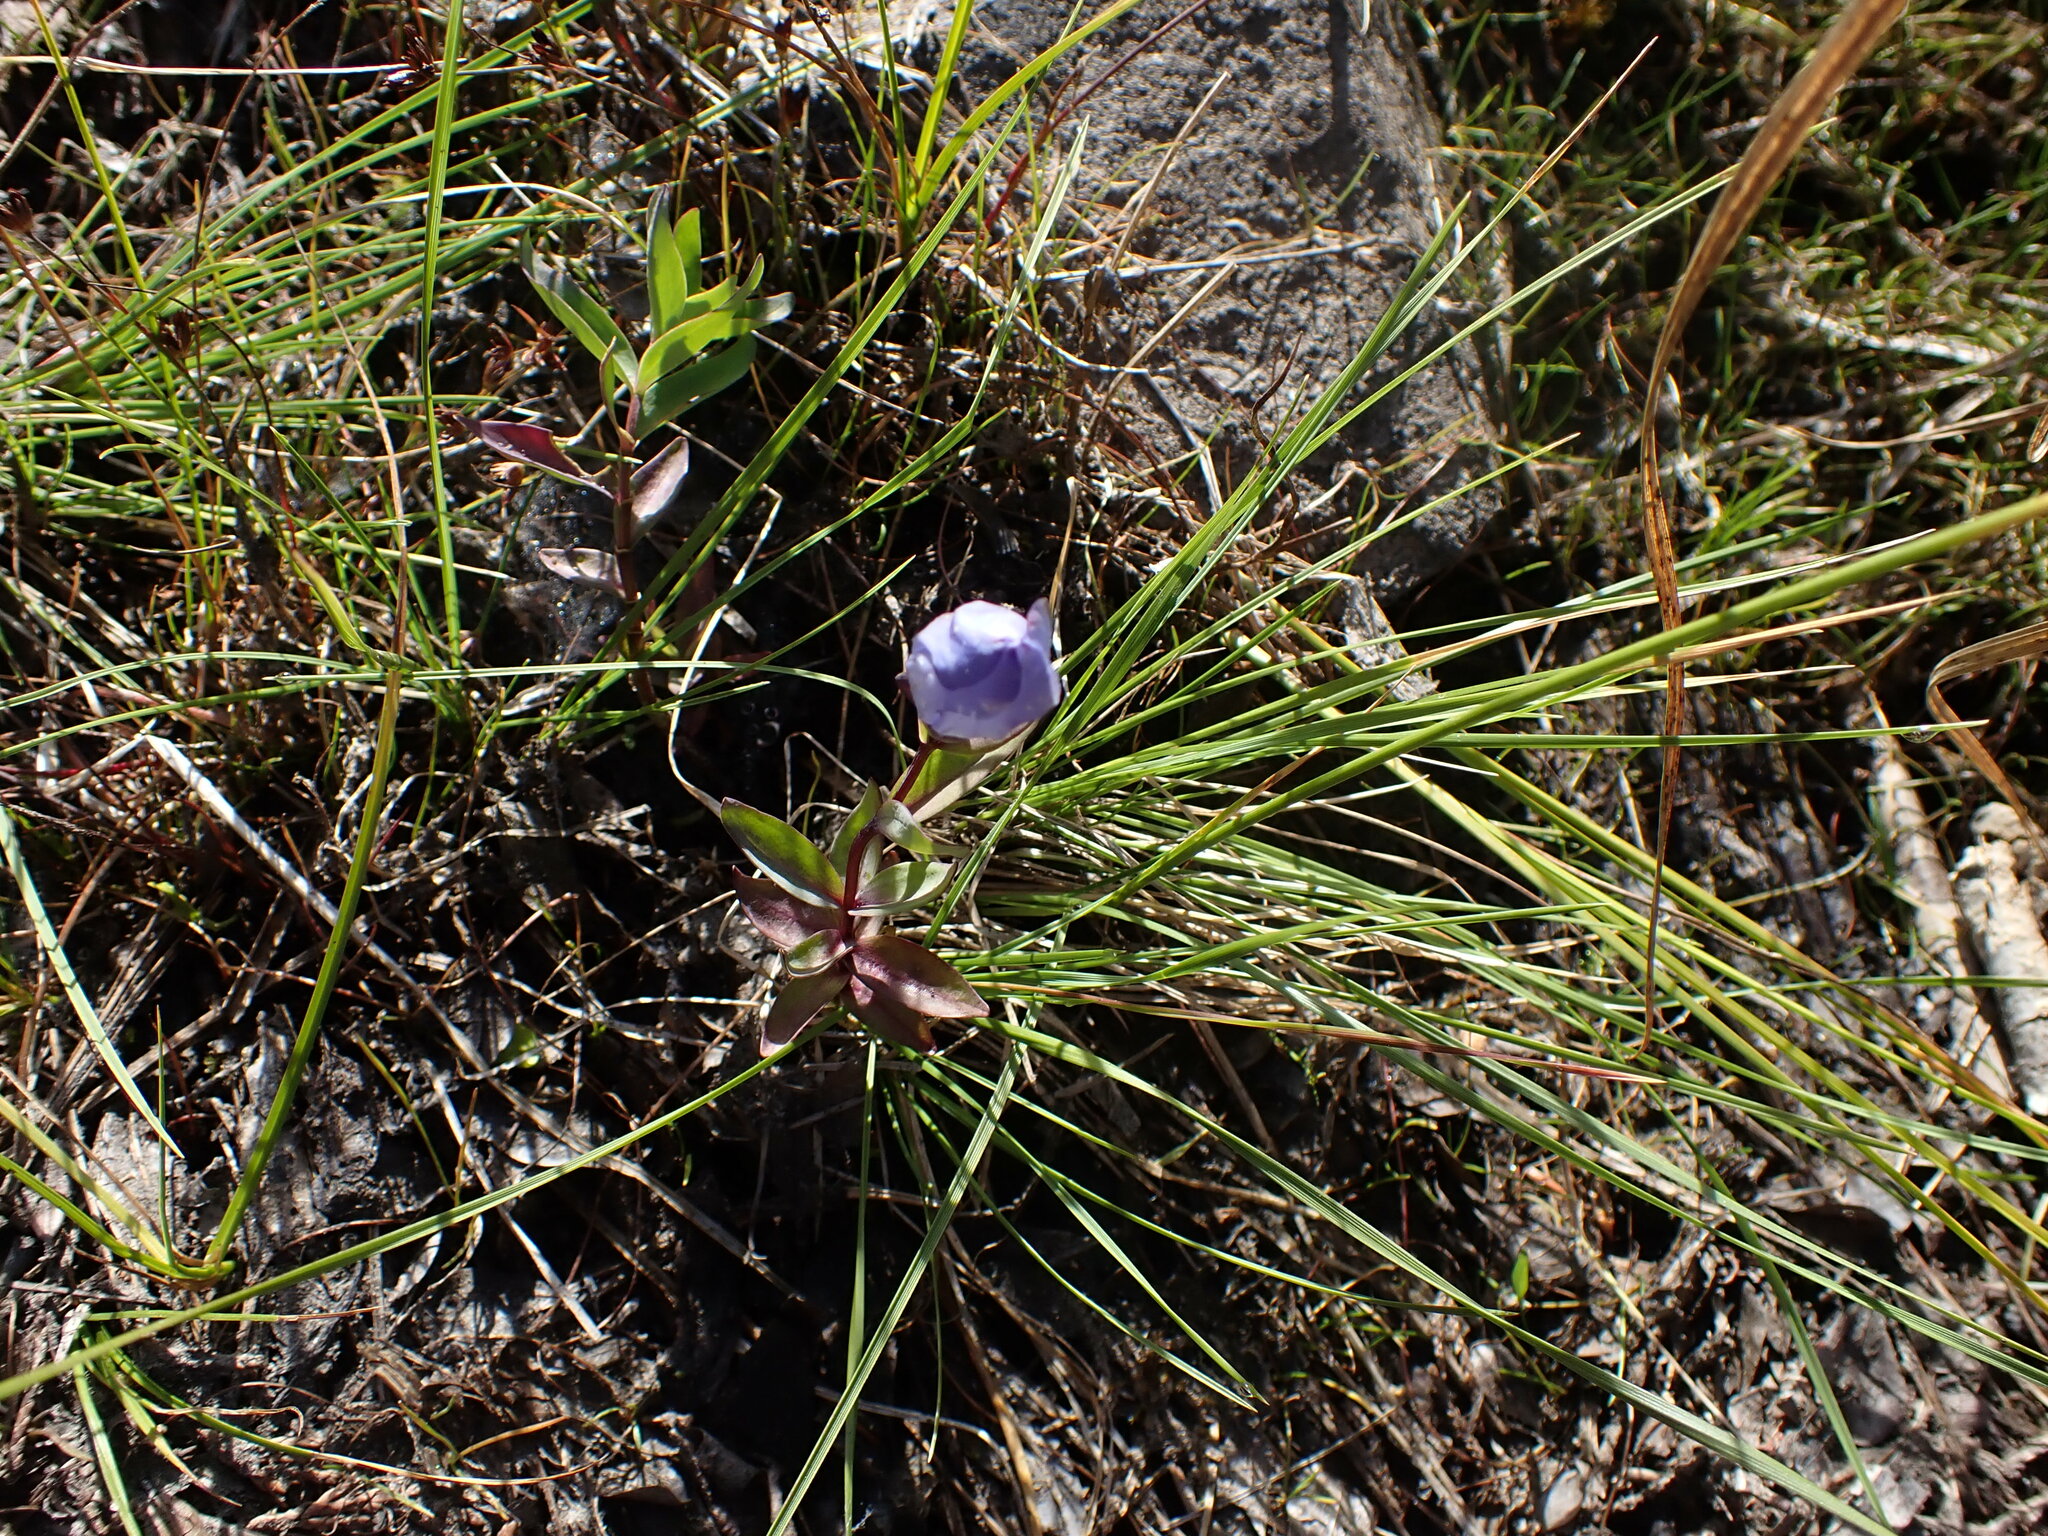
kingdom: Plantae
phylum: Tracheophyta
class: Magnoliopsida
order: Gentianales
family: Gentianaceae
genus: Gentiana
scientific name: Gentiana sceptrum
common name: Pacific gentian
